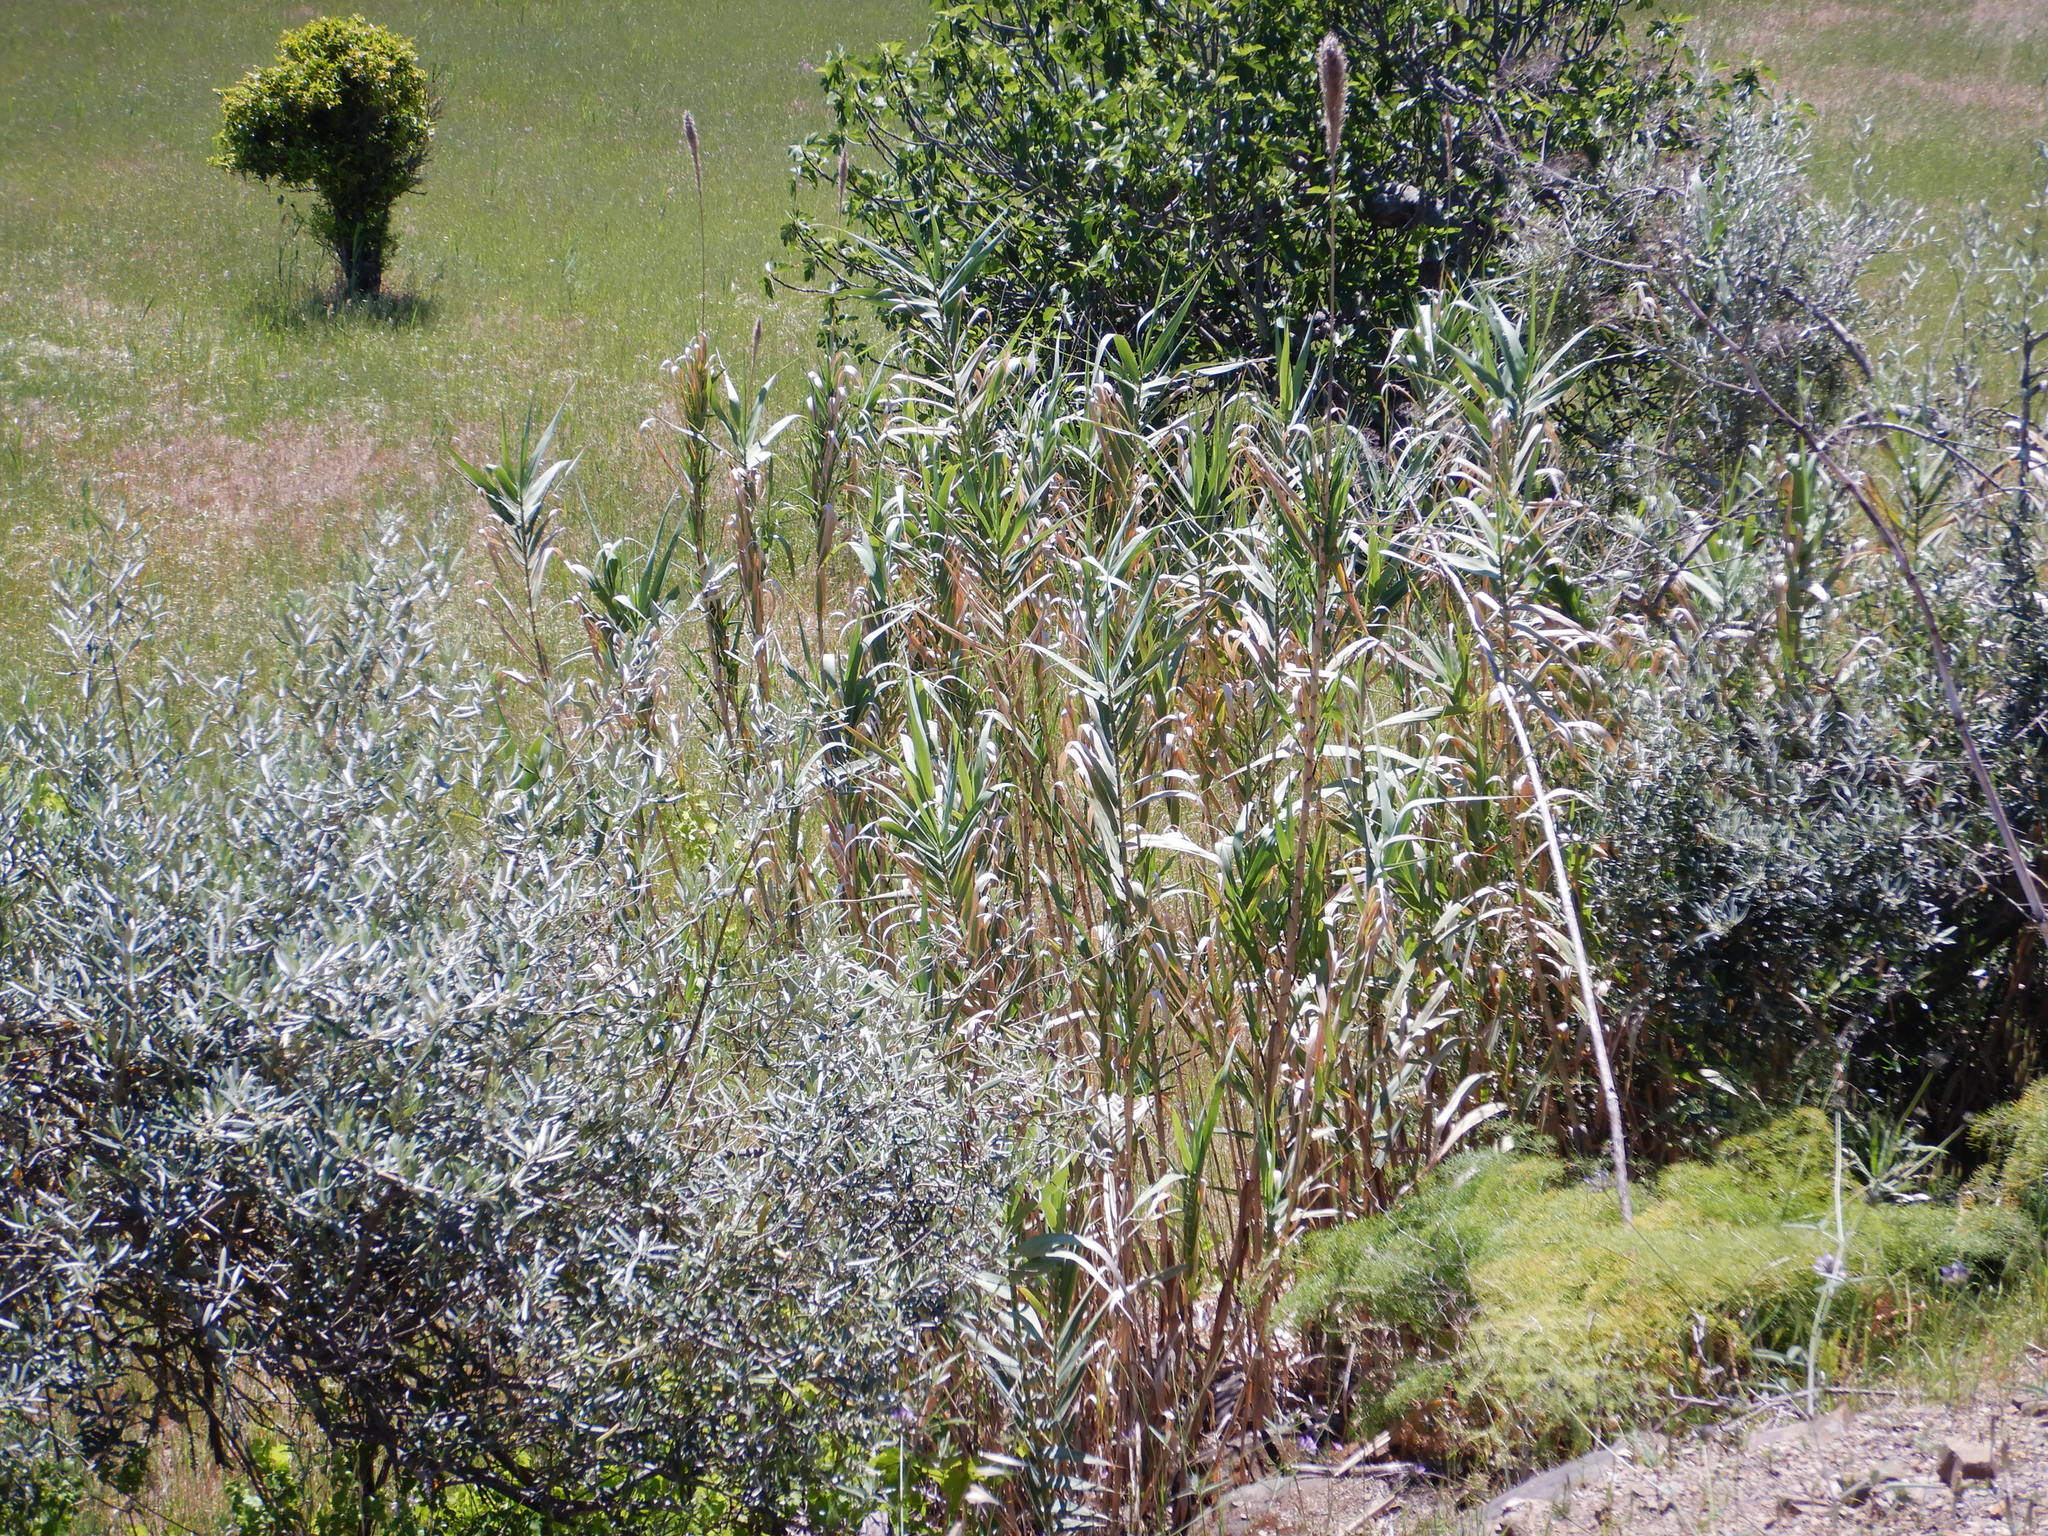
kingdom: Plantae
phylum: Tracheophyta
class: Liliopsida
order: Poales
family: Poaceae
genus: Arundo
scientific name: Arundo donax
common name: Giant reed
